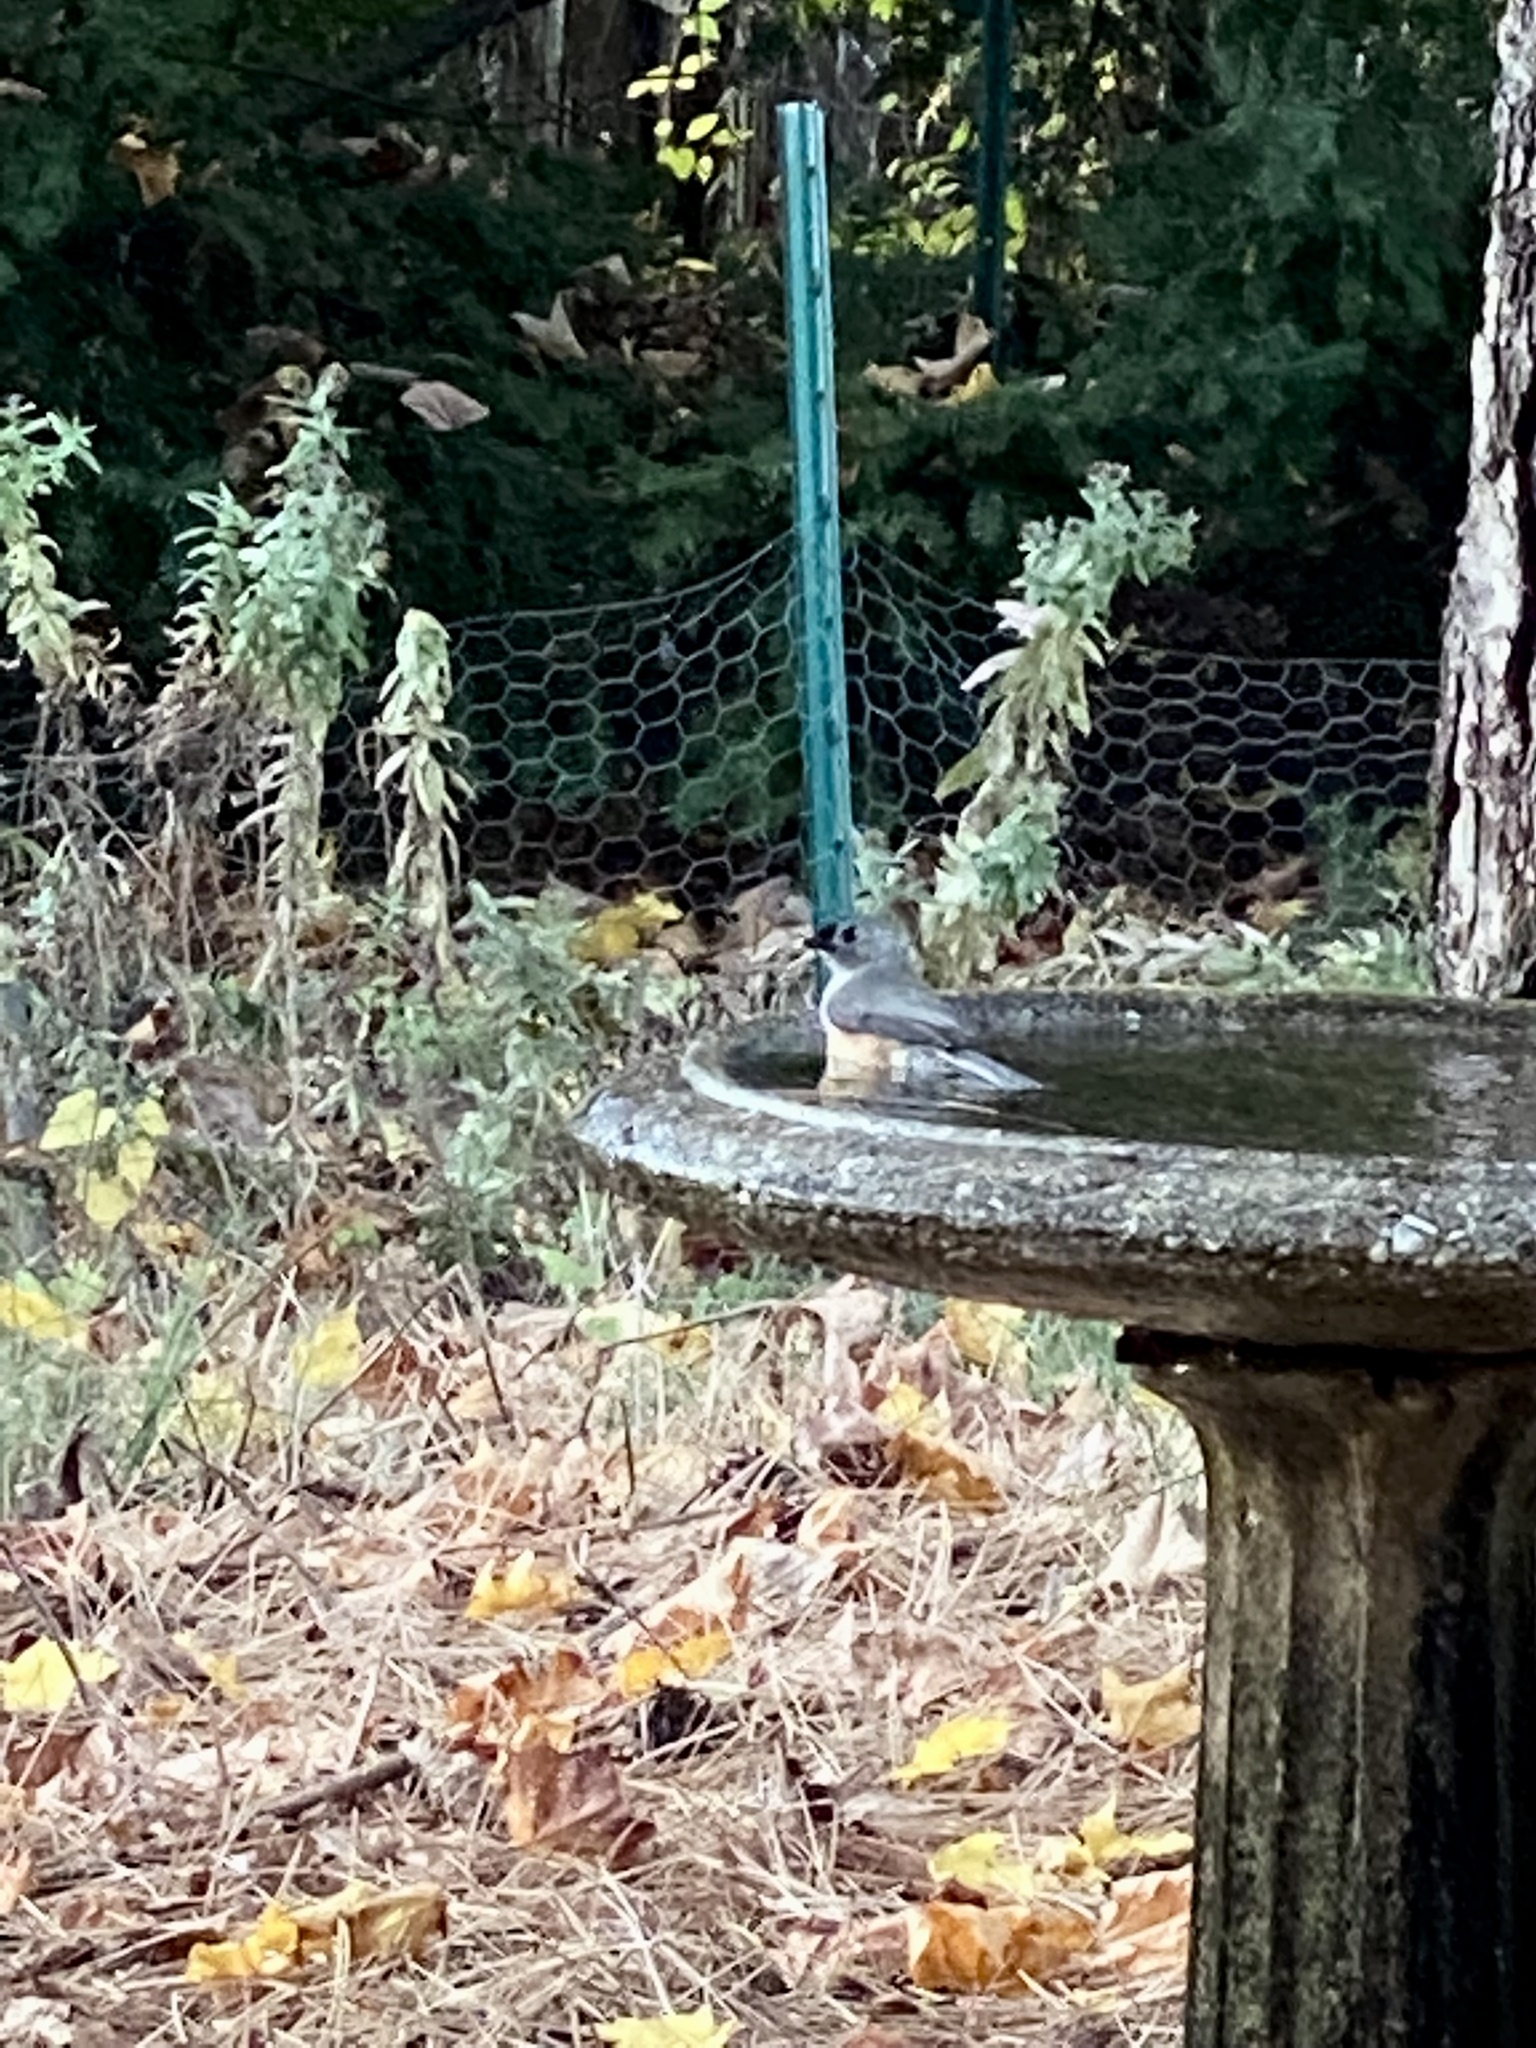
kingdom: Animalia
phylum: Chordata
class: Aves
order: Passeriformes
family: Paridae
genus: Baeolophus
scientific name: Baeolophus bicolor
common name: Tufted titmouse
